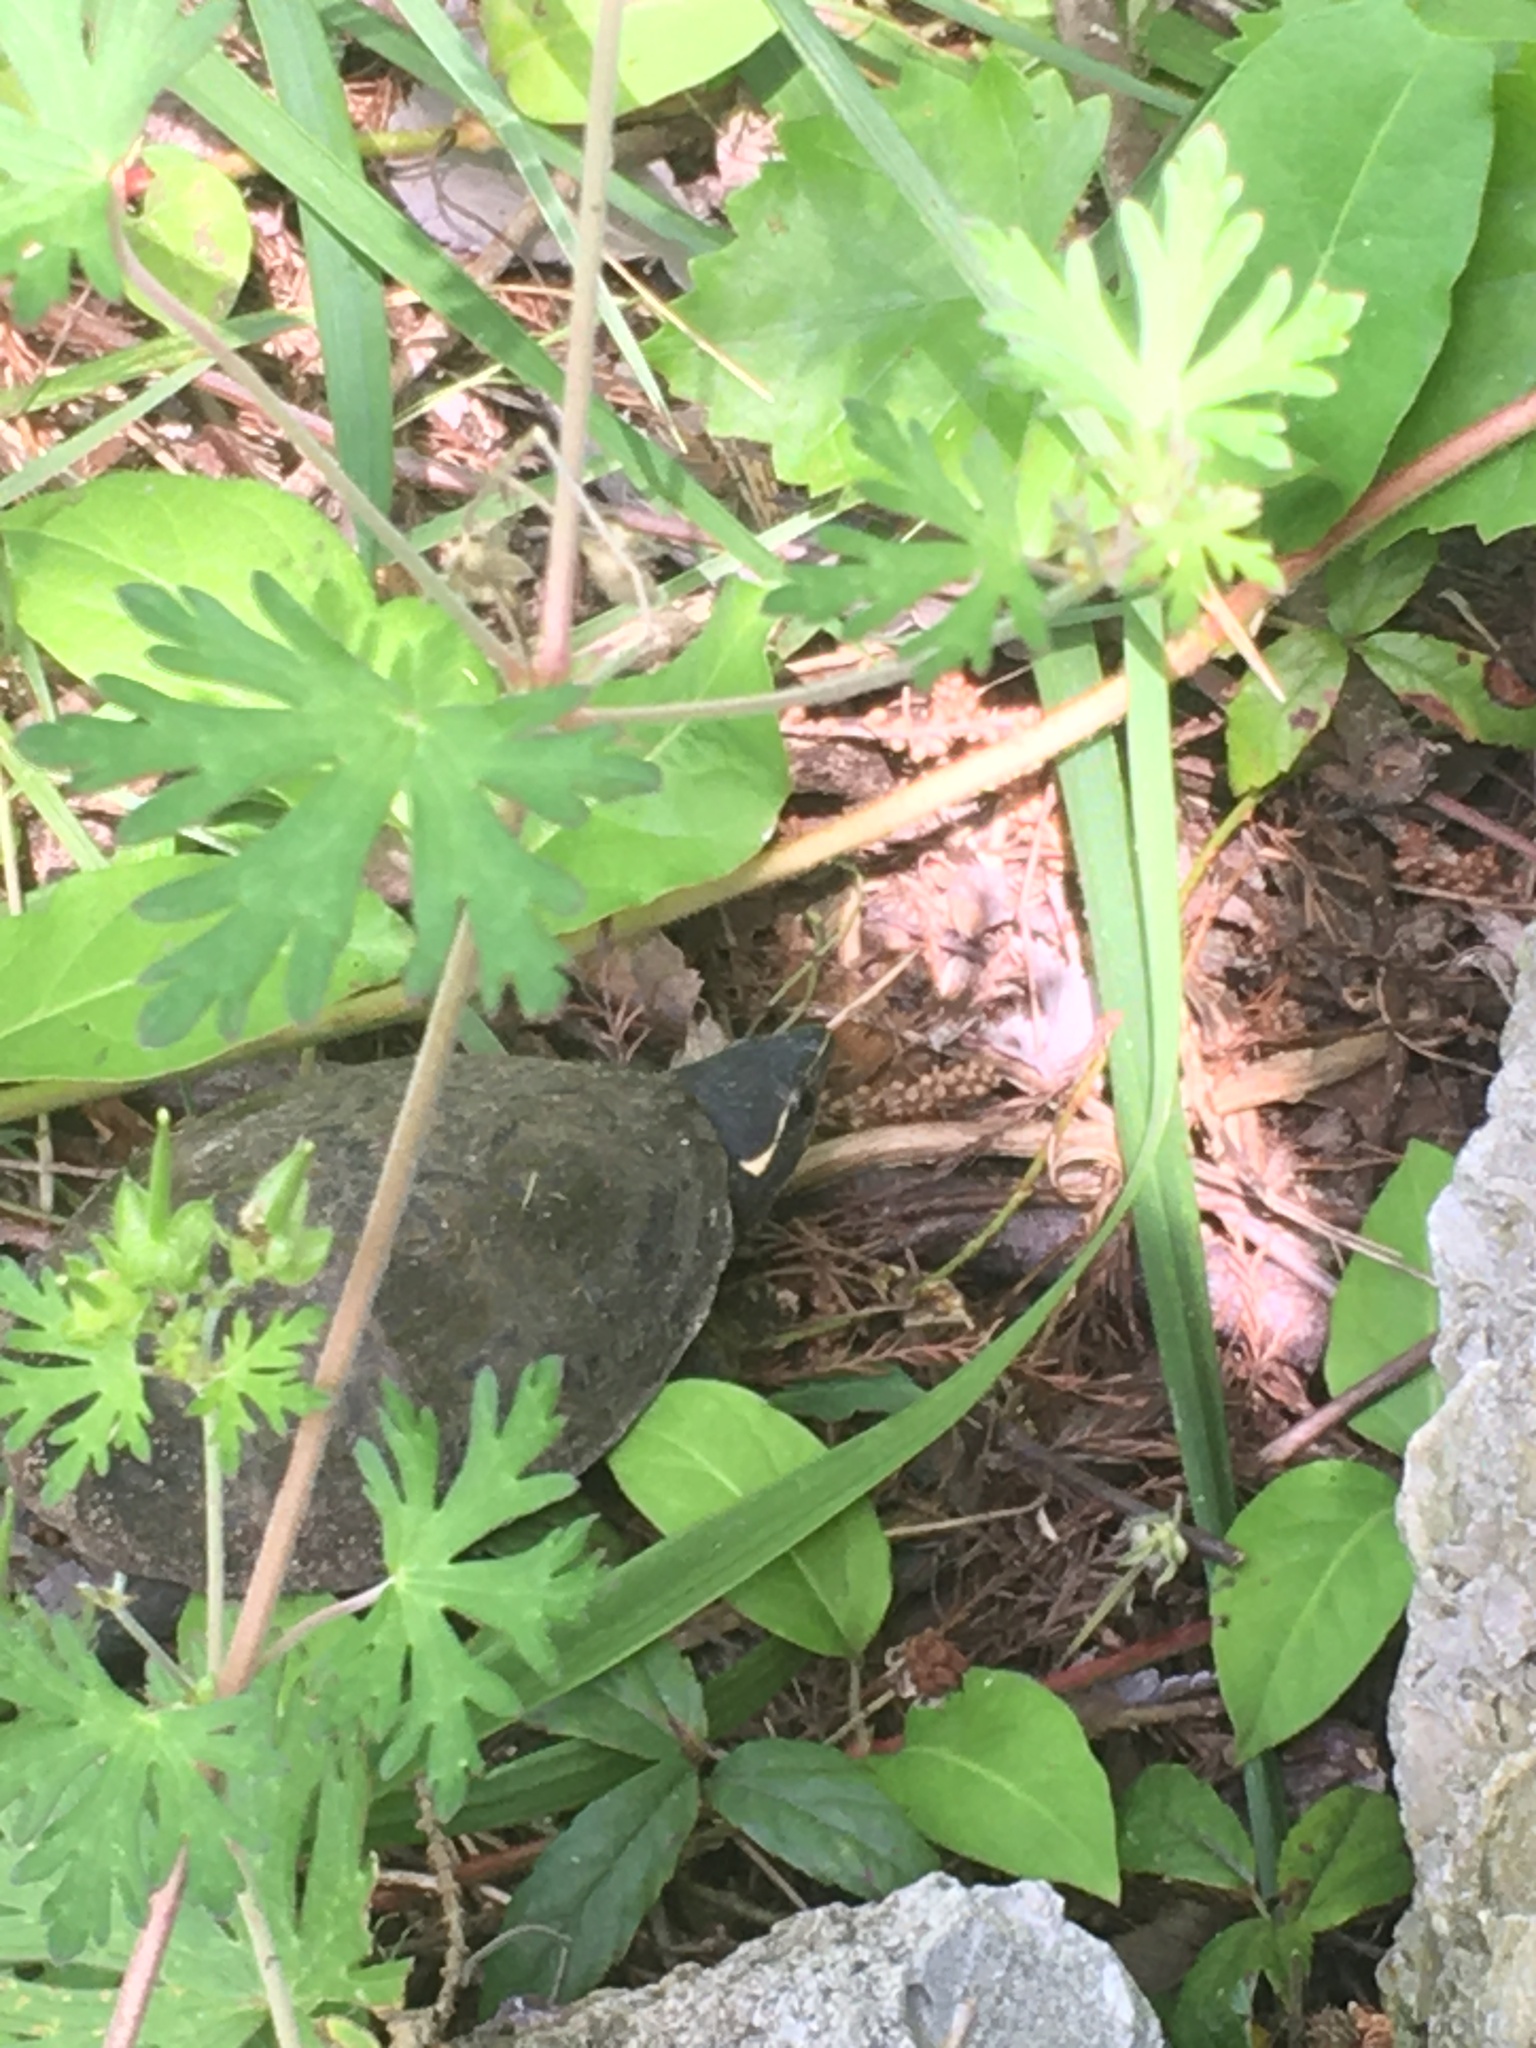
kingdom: Animalia
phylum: Chordata
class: Testudines
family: Kinosternidae
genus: Sternotherus
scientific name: Sternotherus odoratus
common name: Common musk turtle
